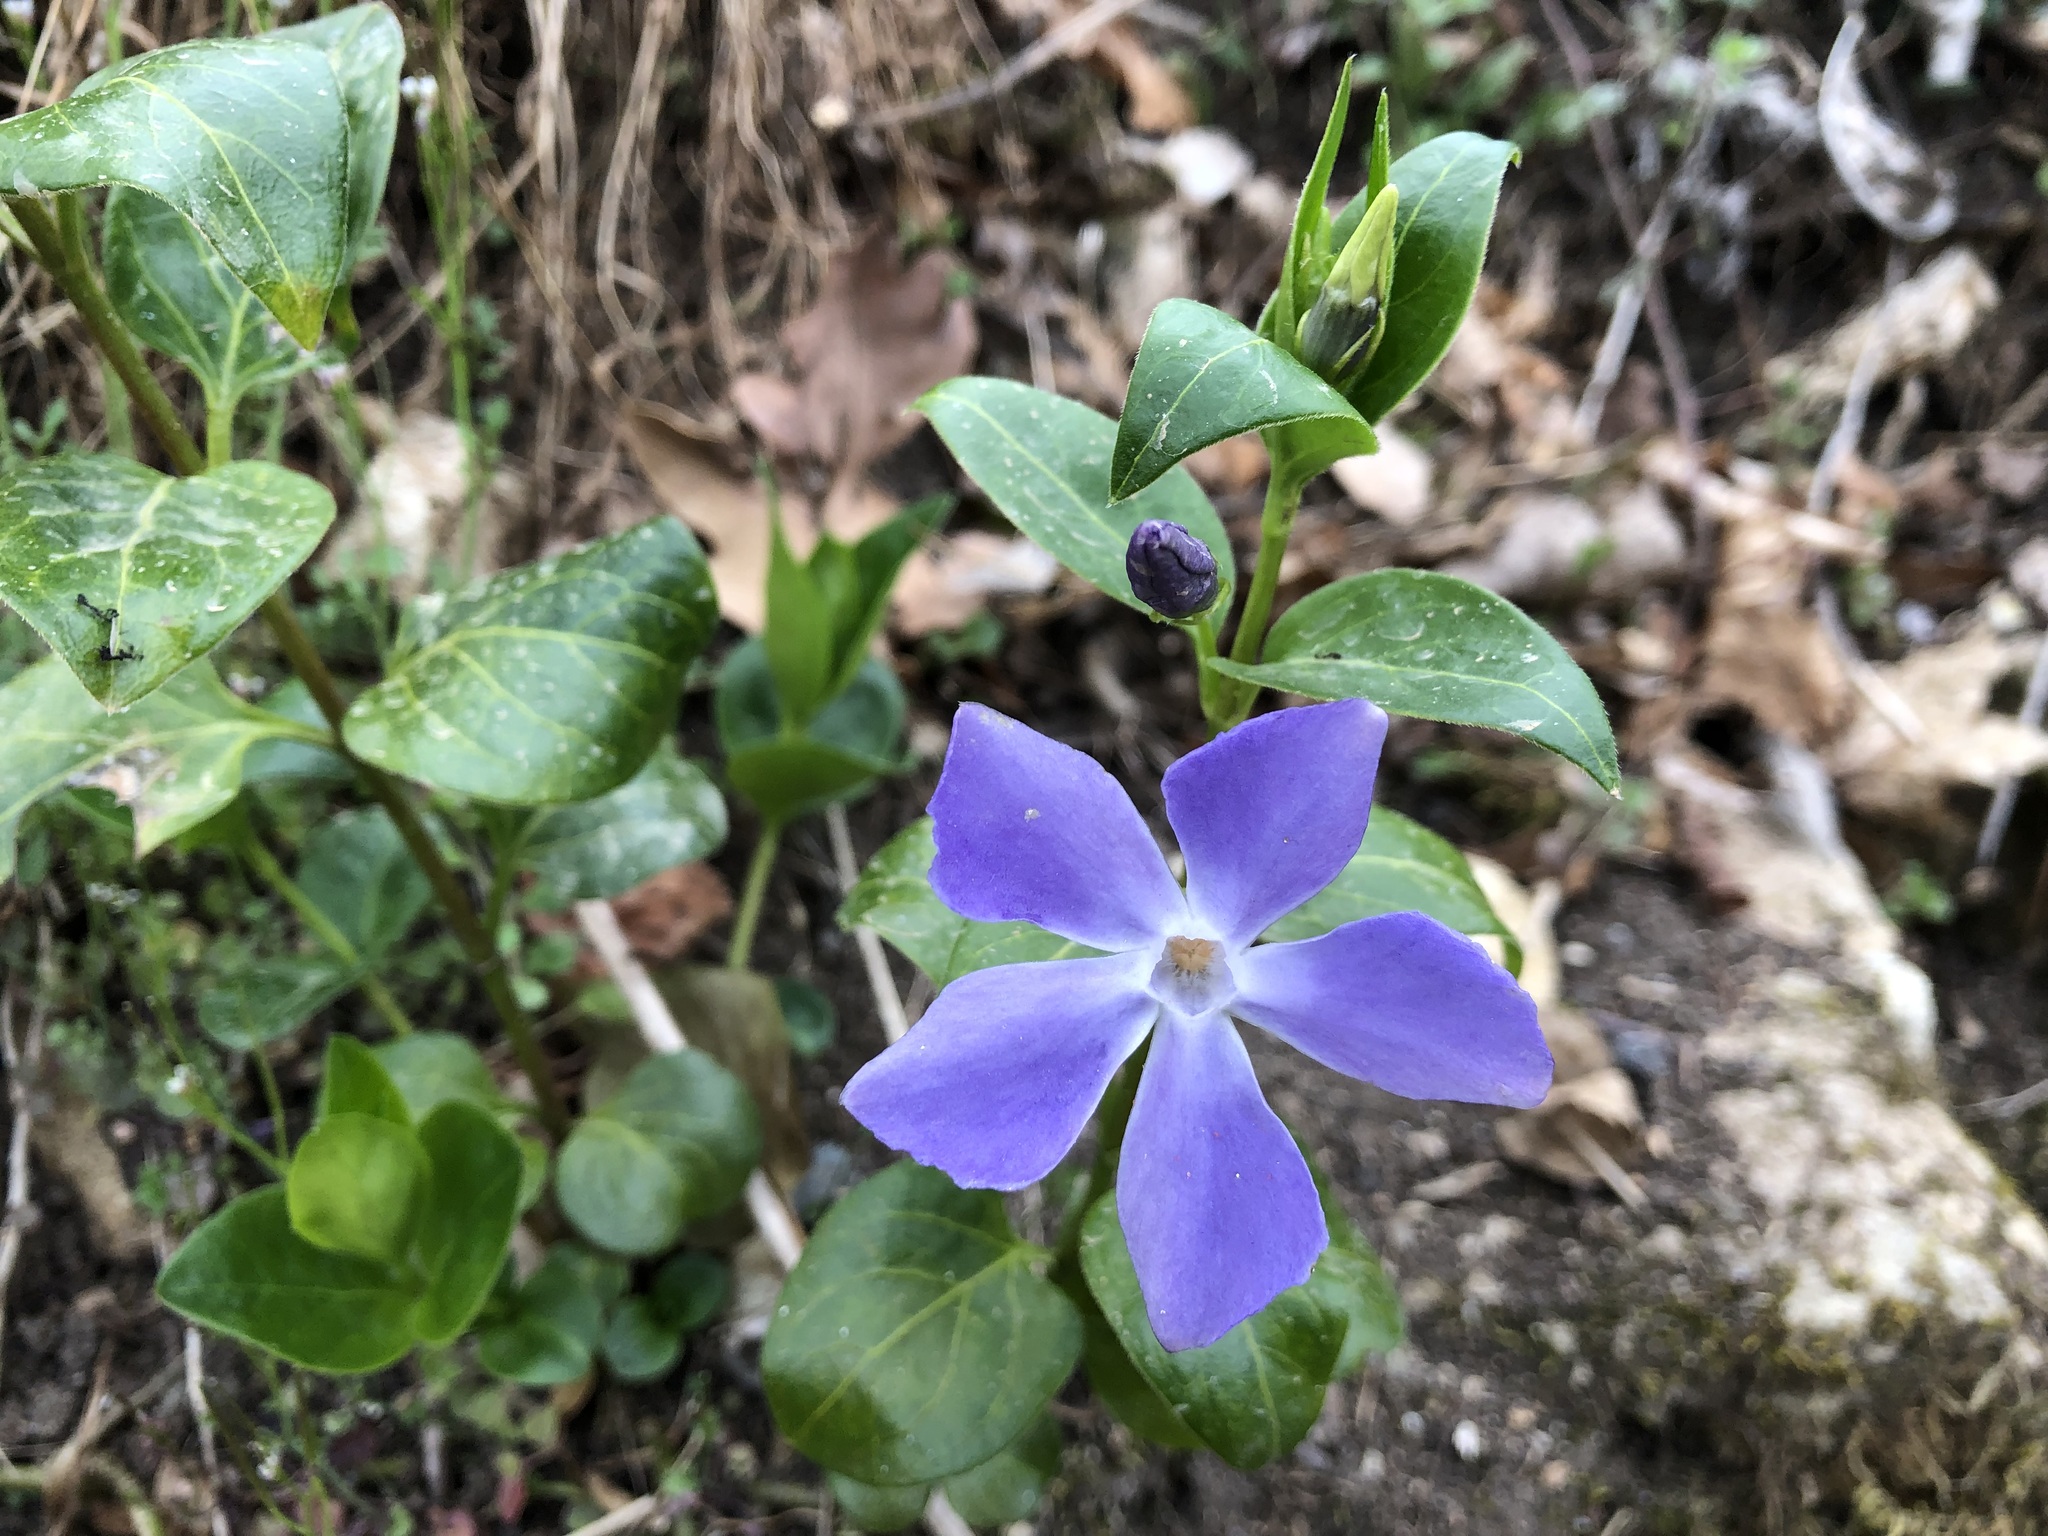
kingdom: Plantae
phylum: Tracheophyta
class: Magnoliopsida
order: Gentianales
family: Apocynaceae
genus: Vinca
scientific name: Vinca major
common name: Greater periwinkle
